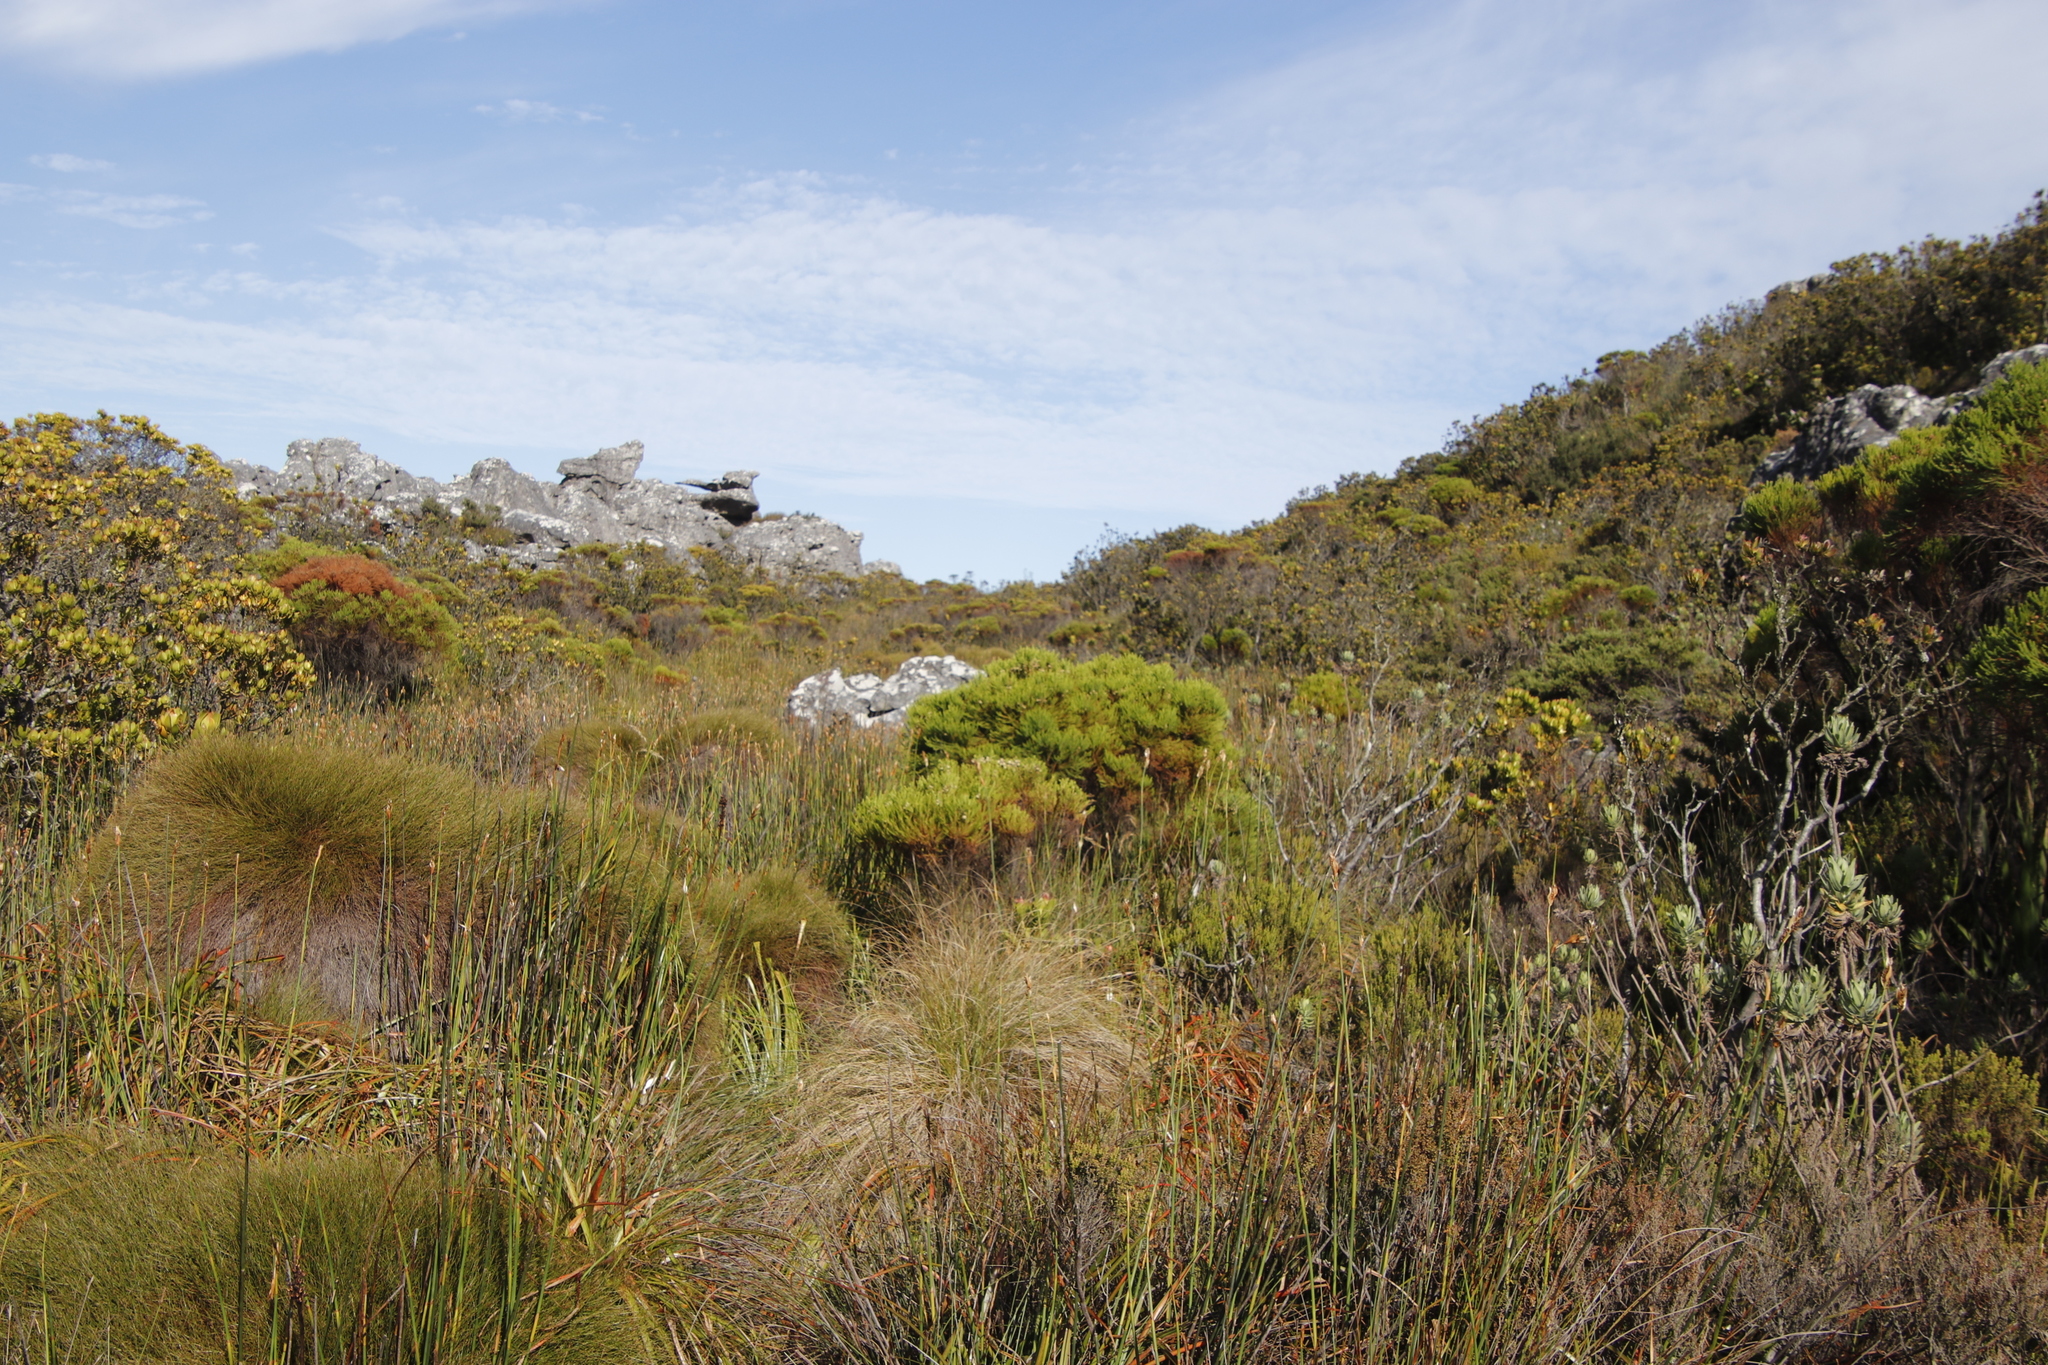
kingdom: Plantae
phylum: Tracheophyta
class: Liliopsida
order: Poales
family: Restionaceae
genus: Elegia
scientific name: Elegia mucronata
